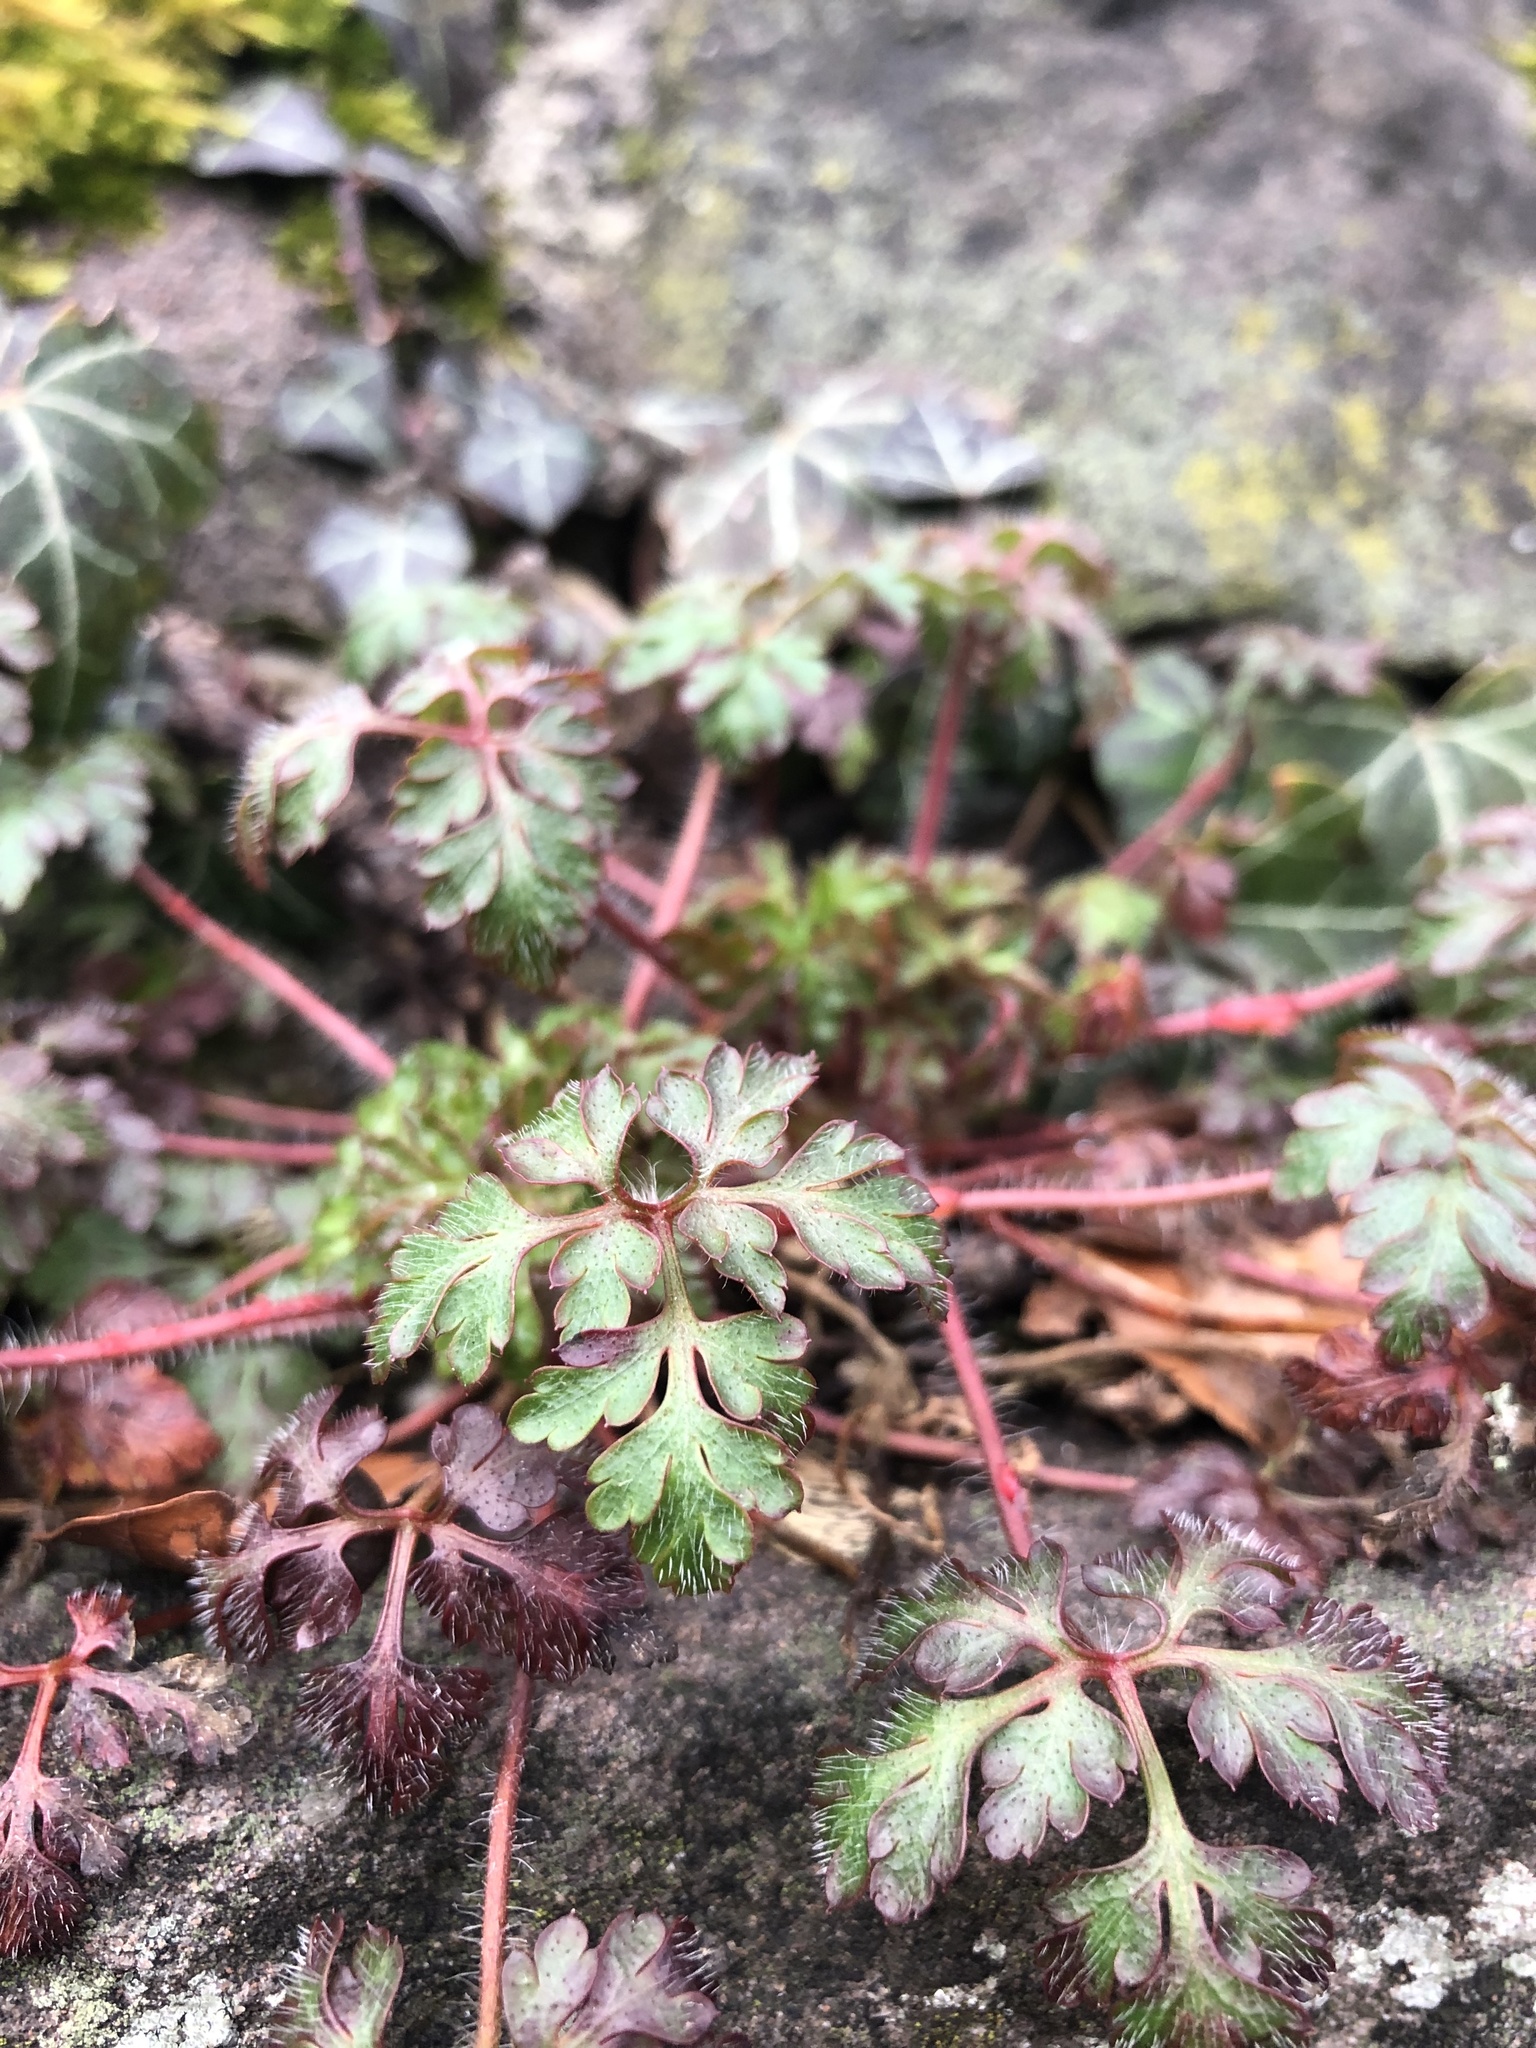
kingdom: Plantae
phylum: Tracheophyta
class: Magnoliopsida
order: Geraniales
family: Geraniaceae
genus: Geranium
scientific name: Geranium robertianum
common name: Herb-robert
